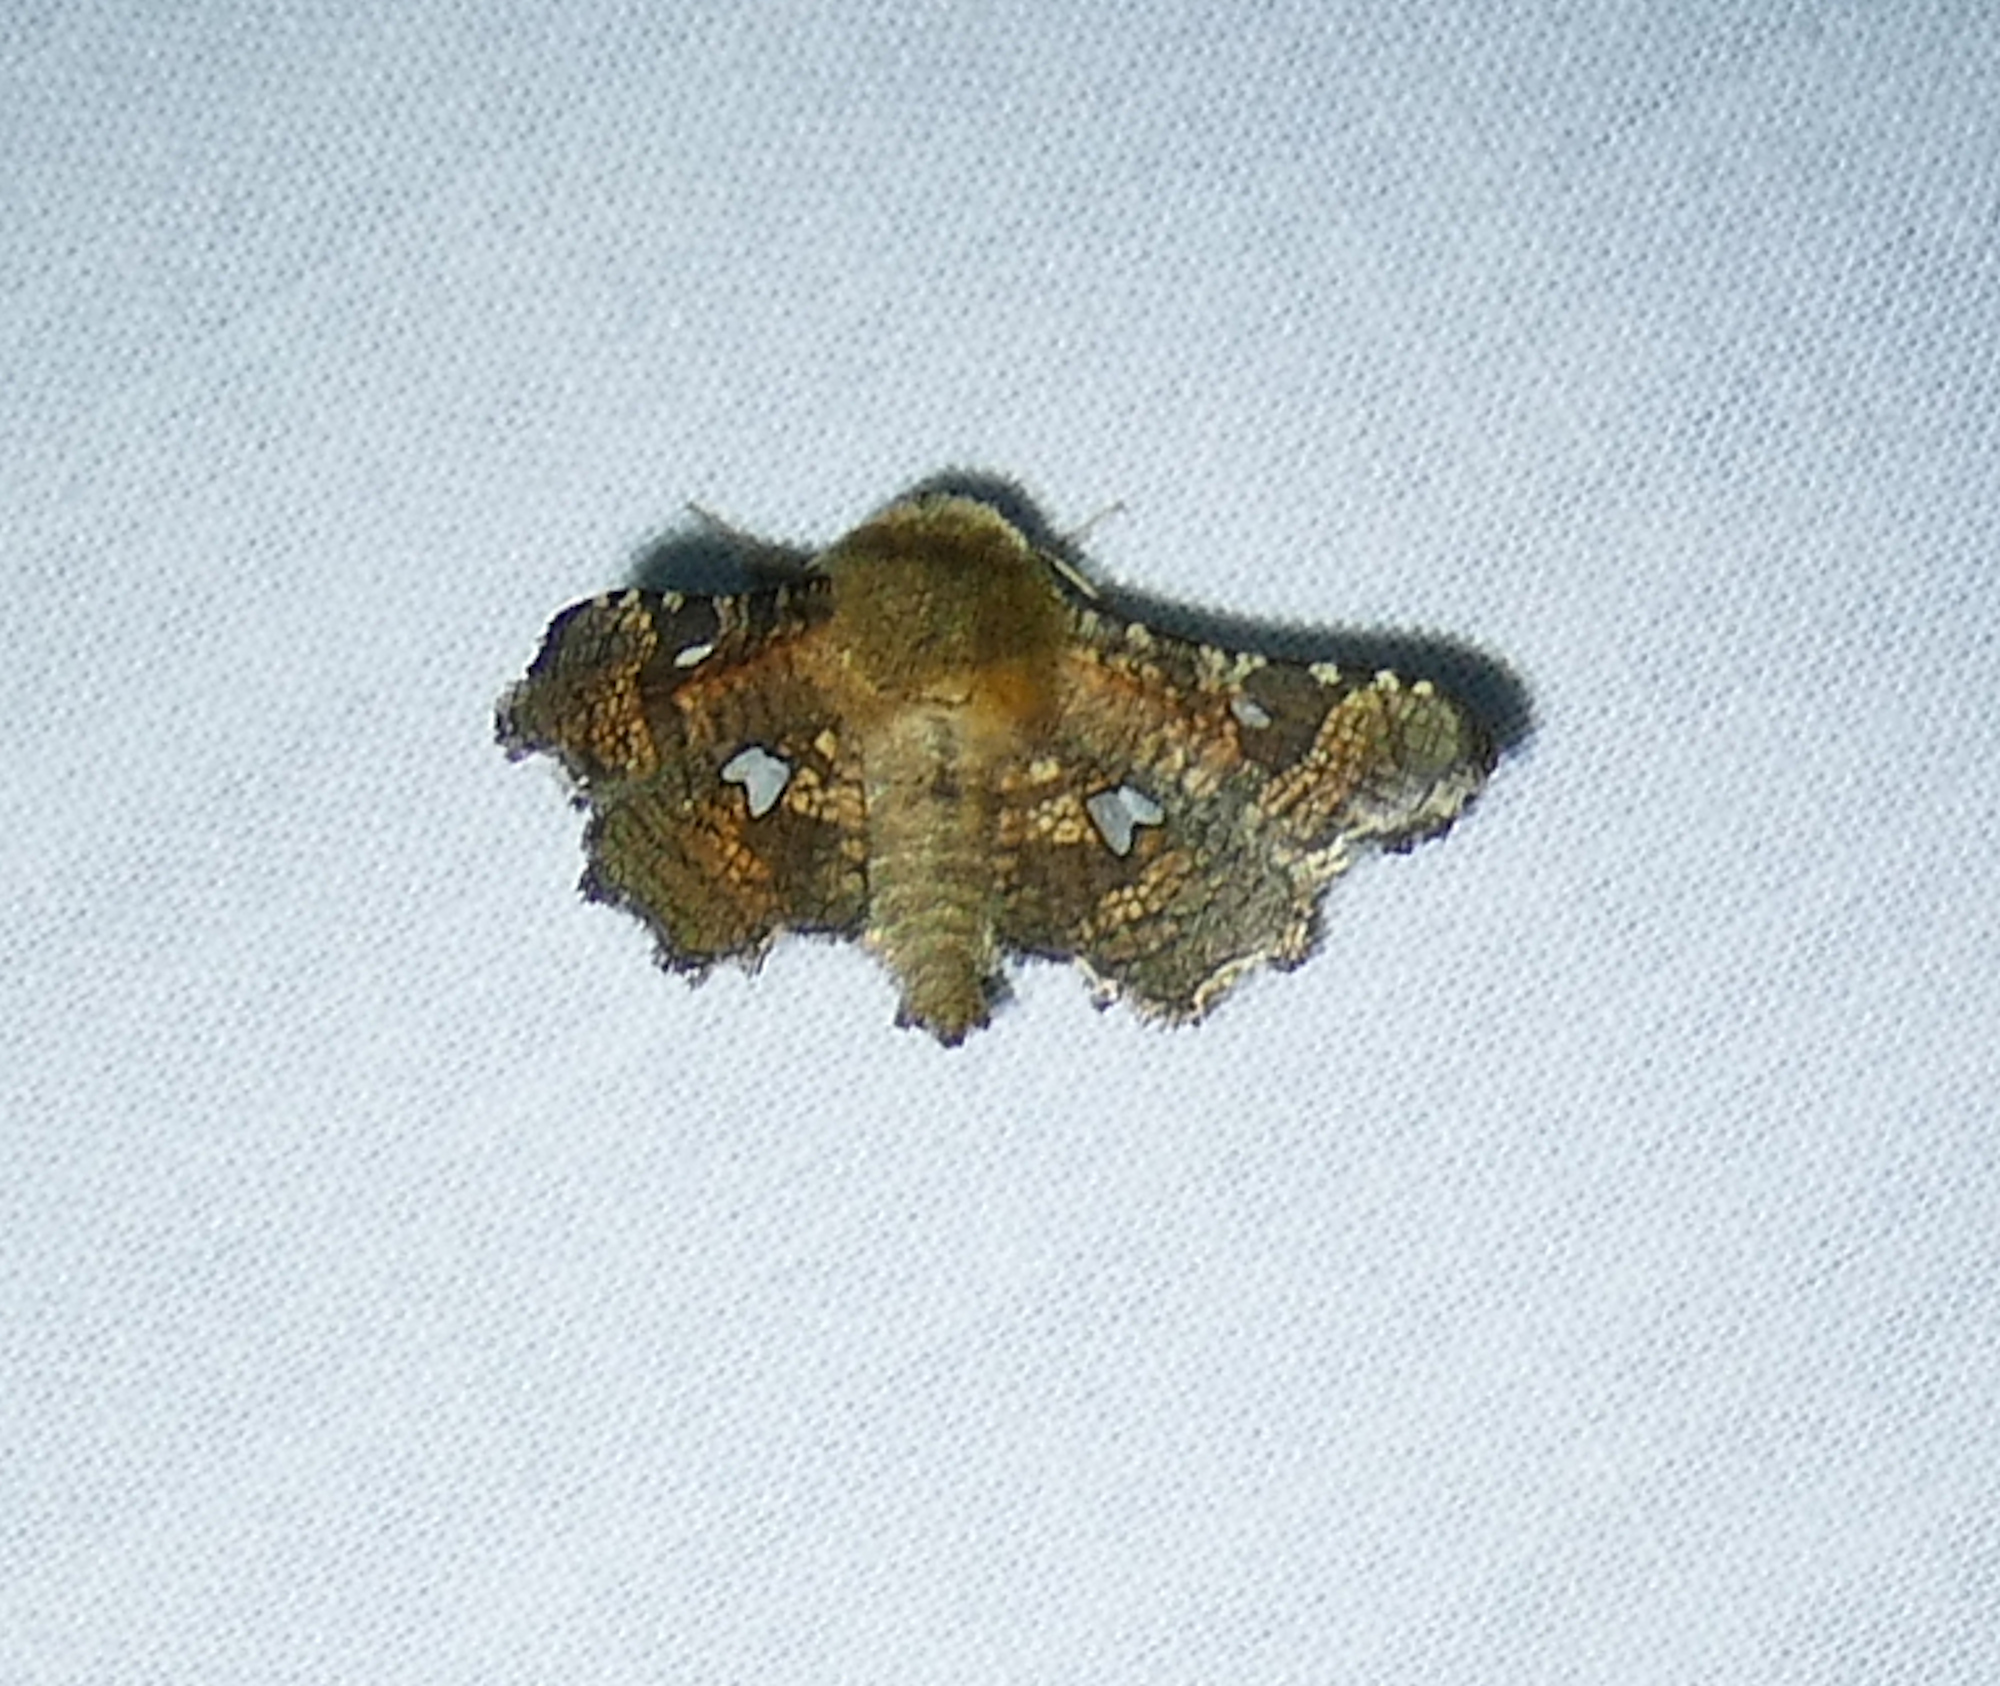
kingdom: Animalia
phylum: Arthropoda
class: Insecta
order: Lepidoptera
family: Thyrididae
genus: Dysodia
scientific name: Dysodia granulata
